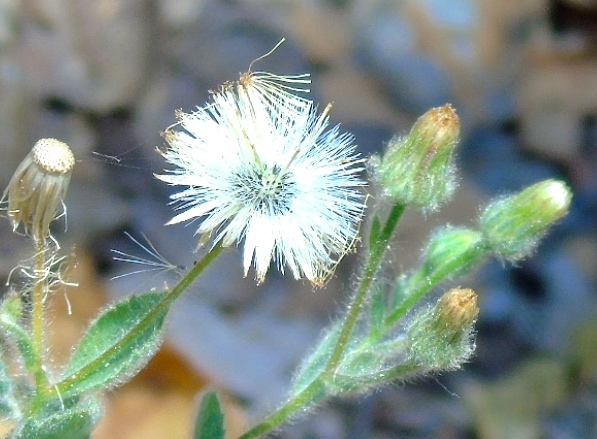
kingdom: Plantae
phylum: Tracheophyta
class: Magnoliopsida
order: Asterales
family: Asteraceae
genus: Pseudoconyza
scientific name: Pseudoconyza viscosa
